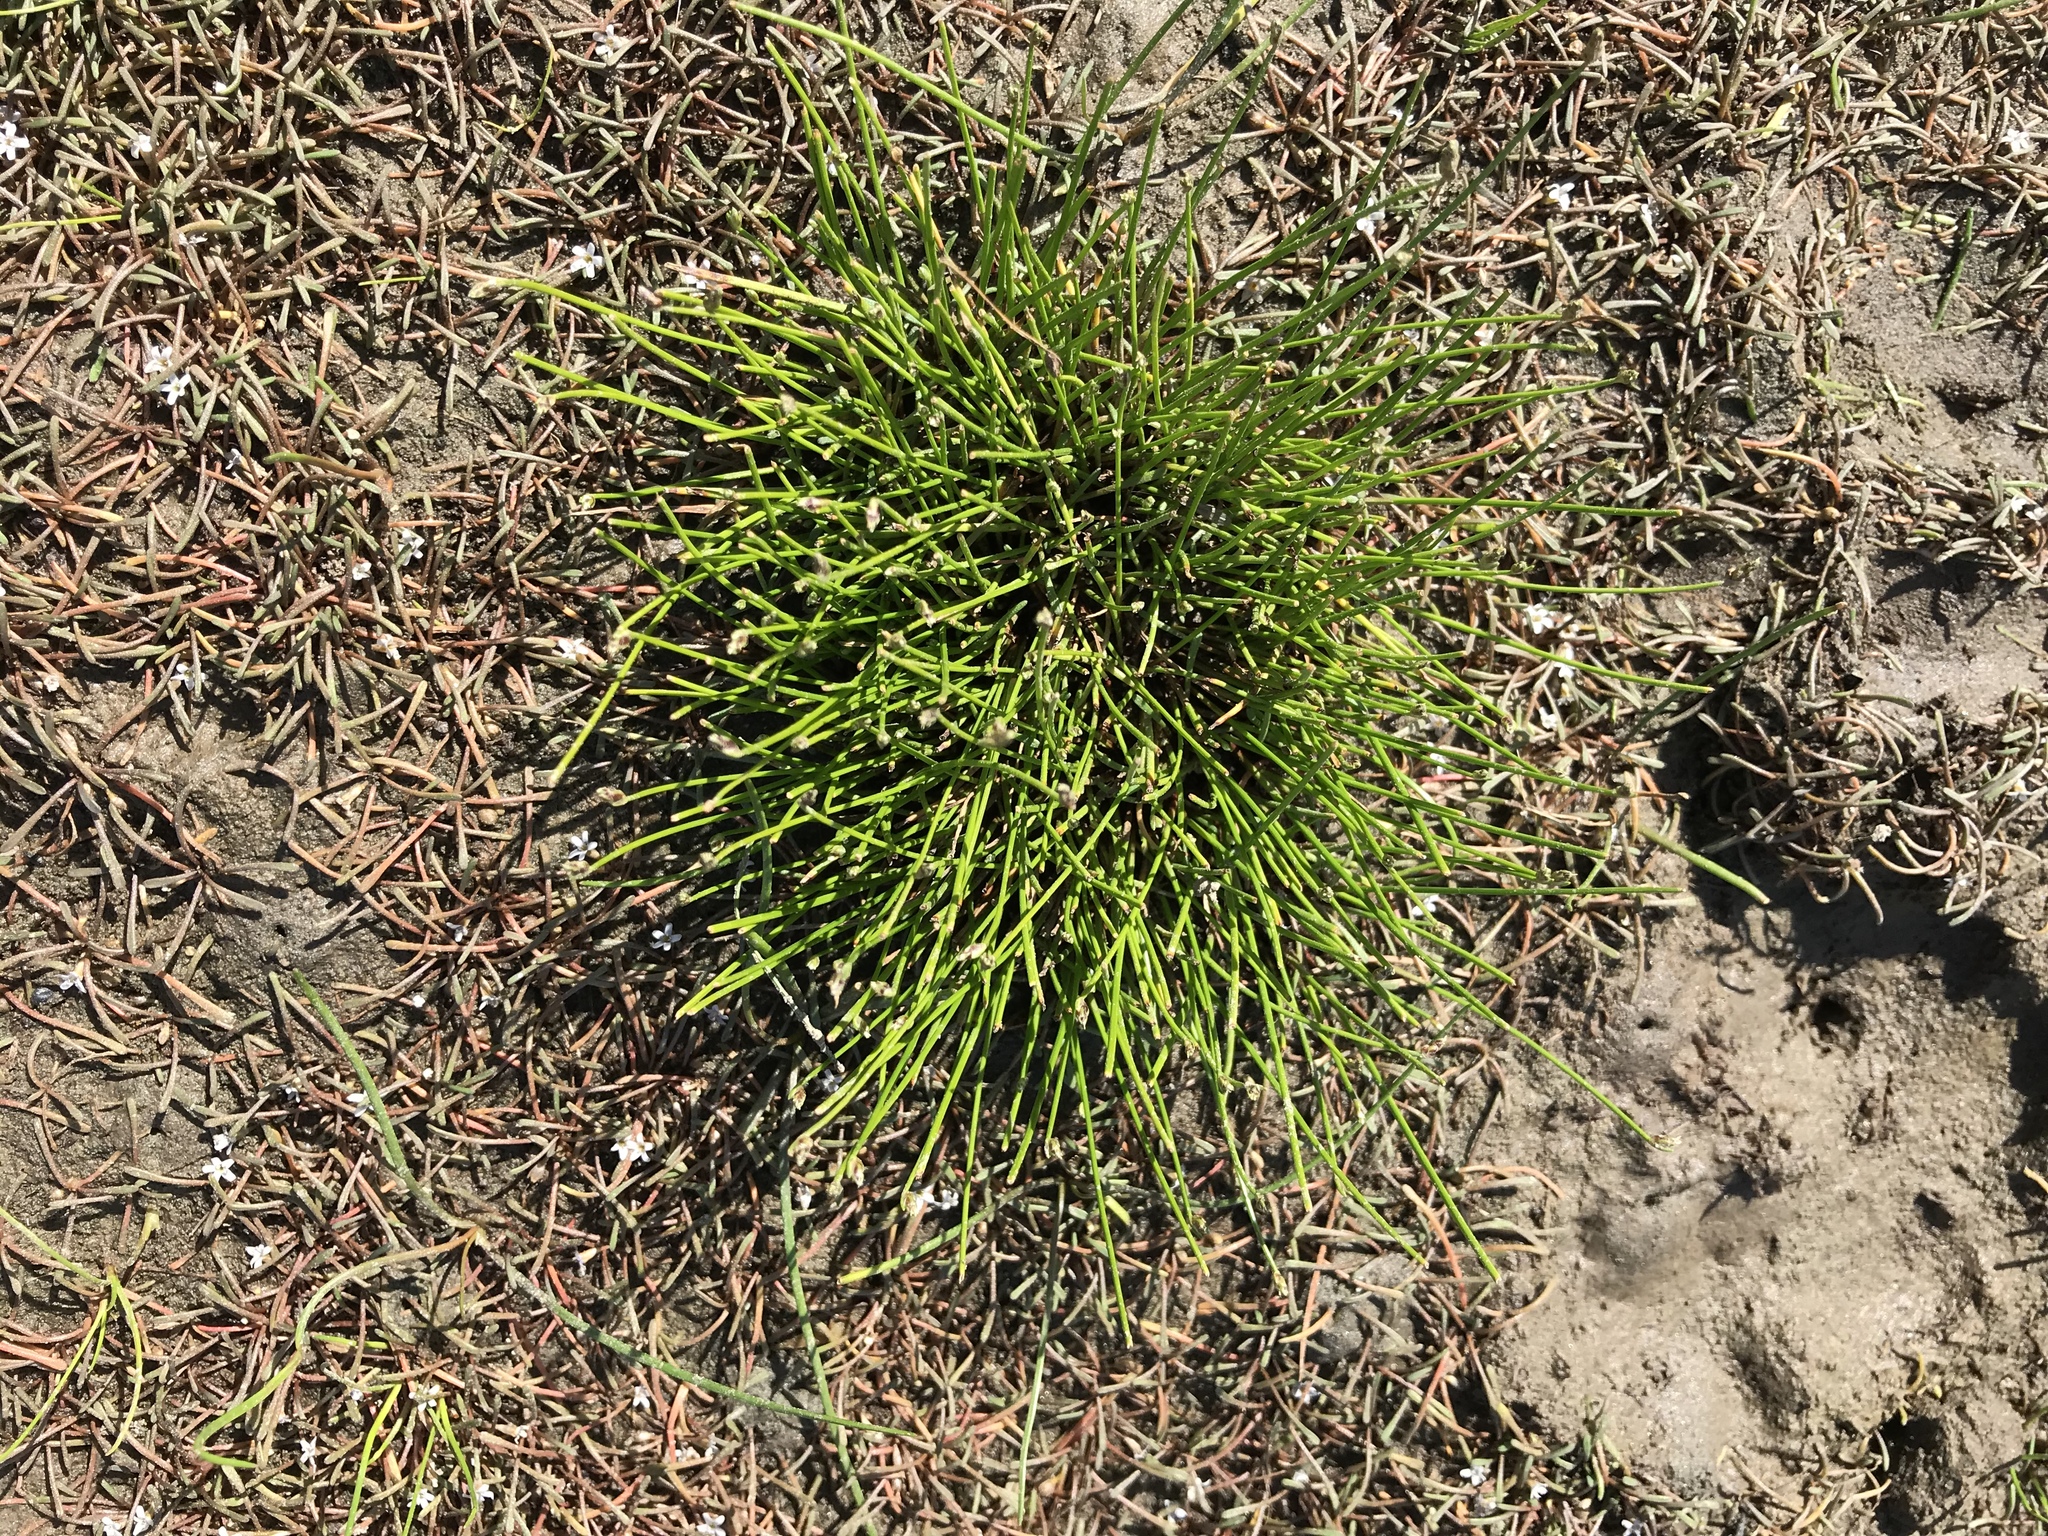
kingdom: Plantae
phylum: Tracheophyta
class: Liliopsida
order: Poales
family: Cyperaceae
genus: Isolepis
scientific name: Isolepis cernua
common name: Slender club-rush
